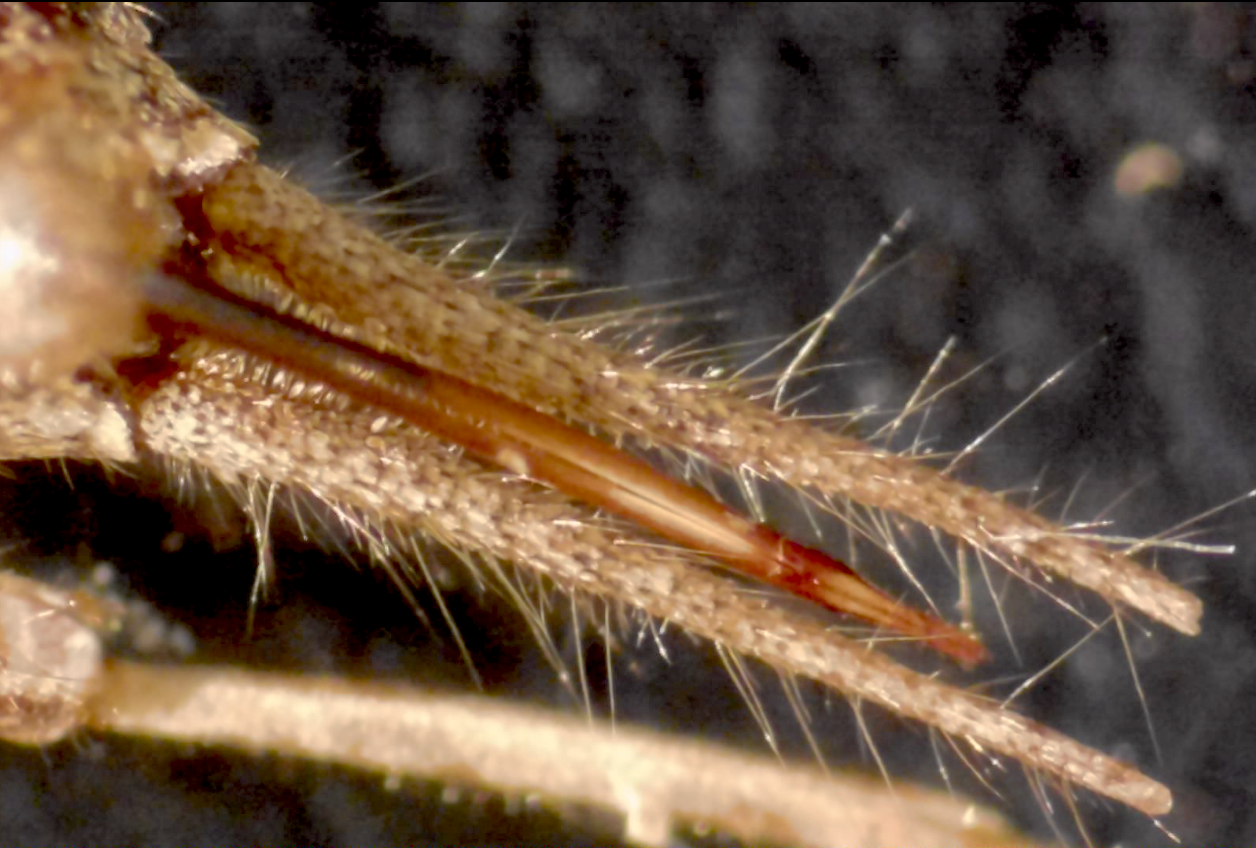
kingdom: Animalia
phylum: Arthropoda
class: Insecta
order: Orthoptera
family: Mogoplistidae
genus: Ornebius
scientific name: Ornebius aperta
